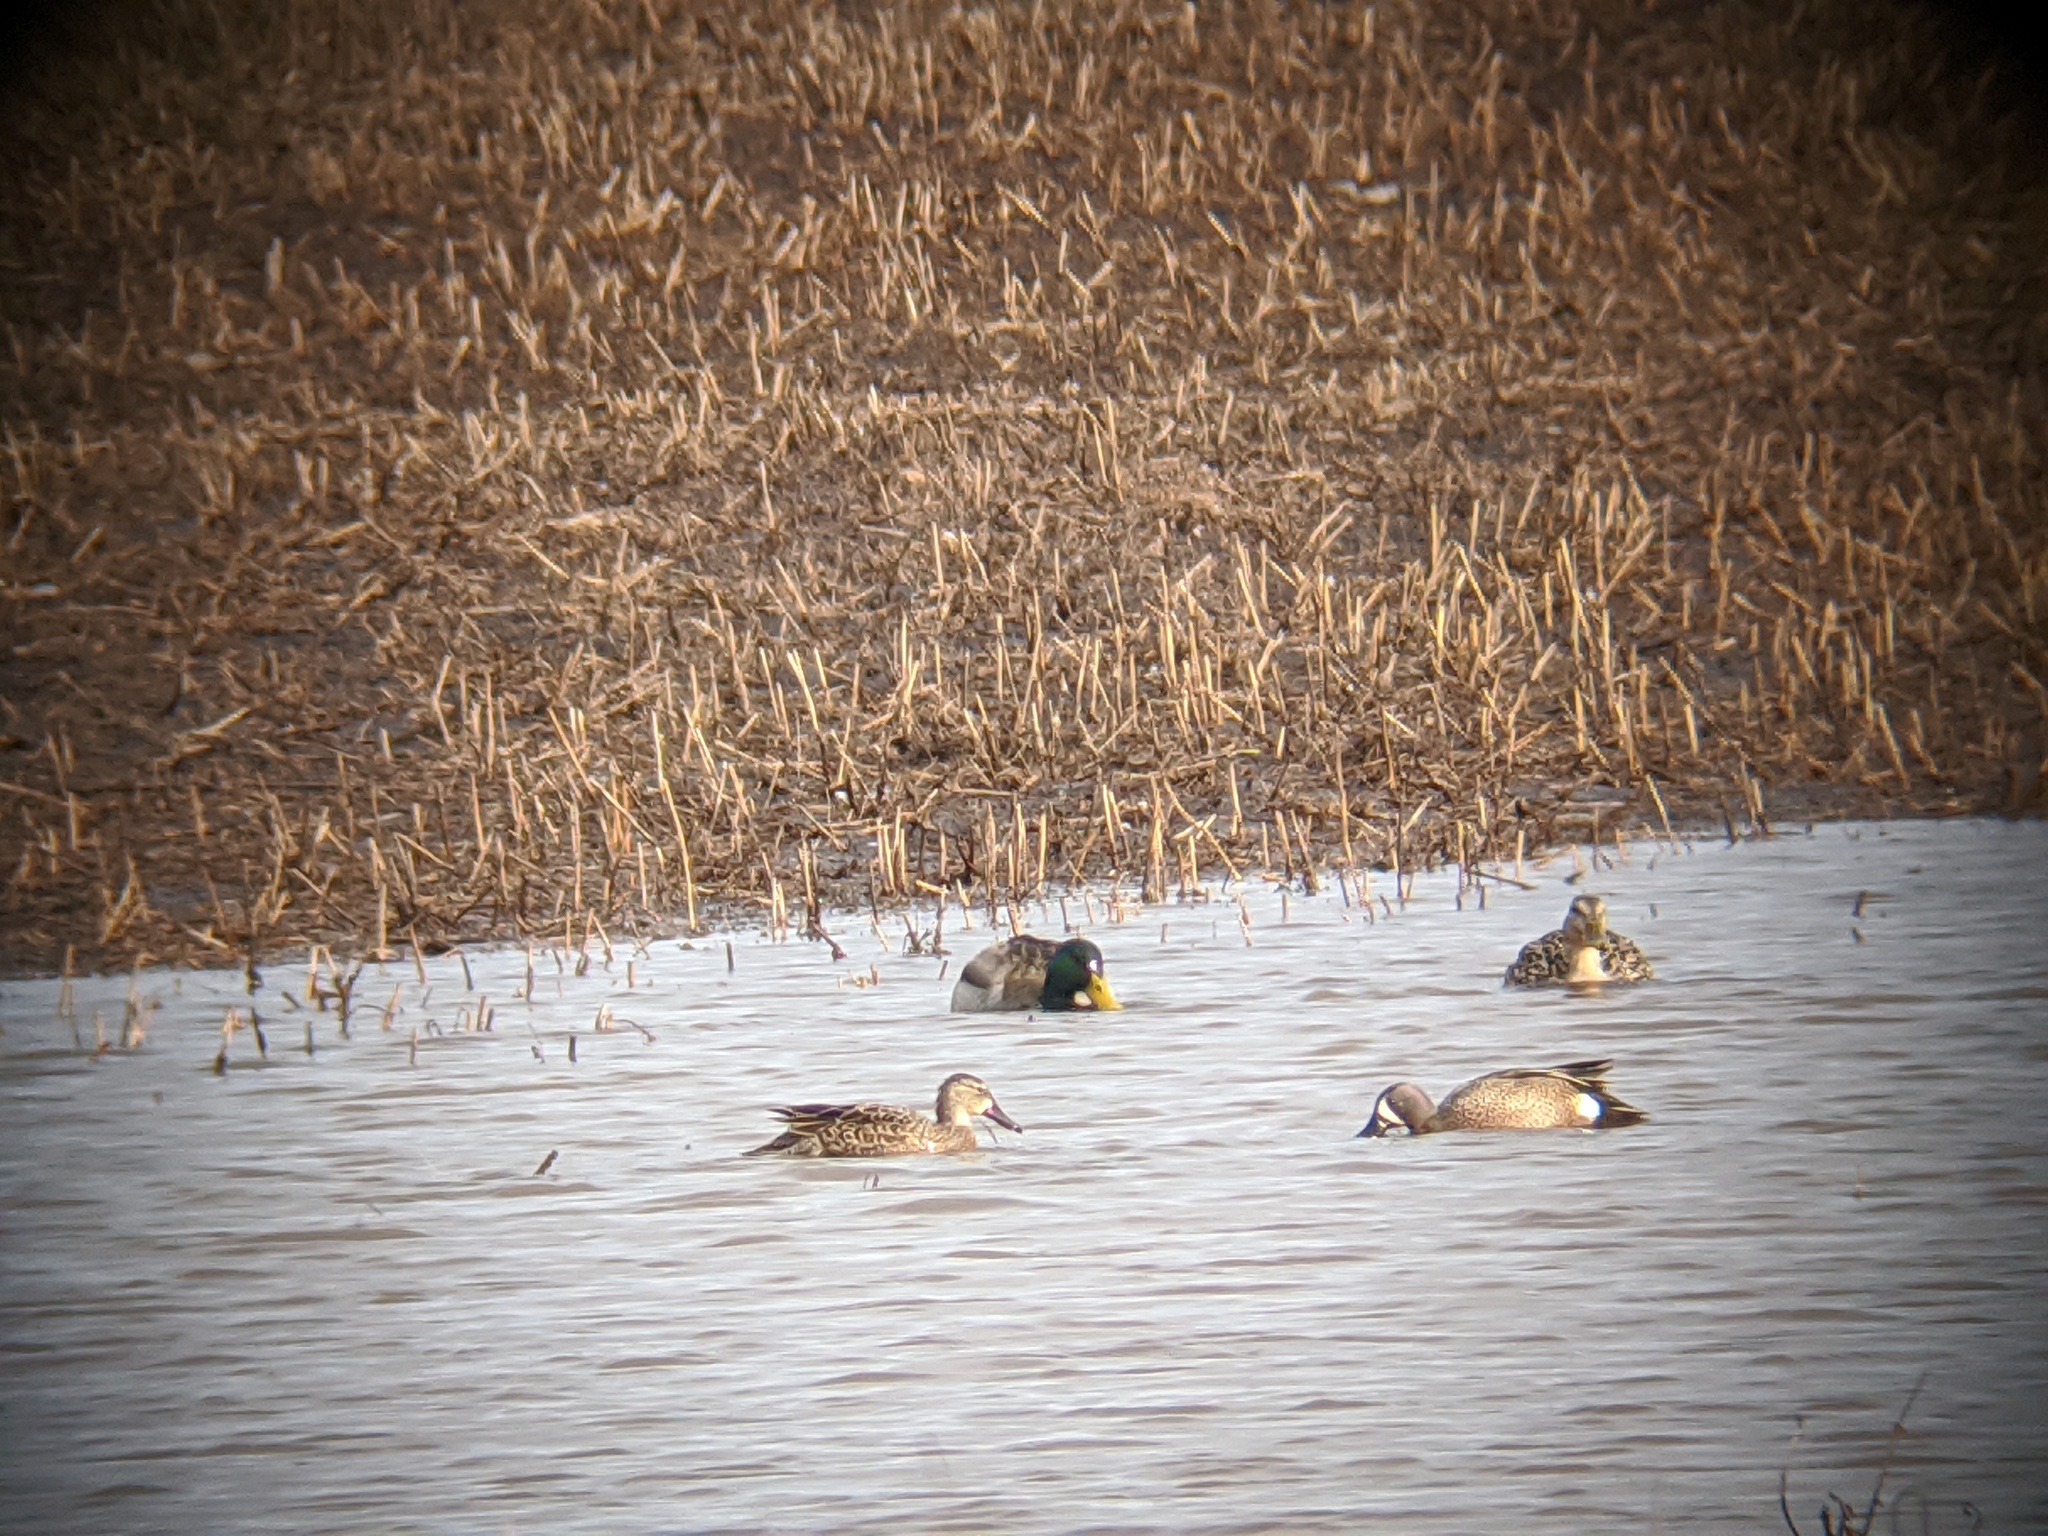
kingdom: Animalia
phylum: Chordata
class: Aves
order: Anseriformes
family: Anatidae
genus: Spatula
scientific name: Spatula discors
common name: Blue-winged teal
